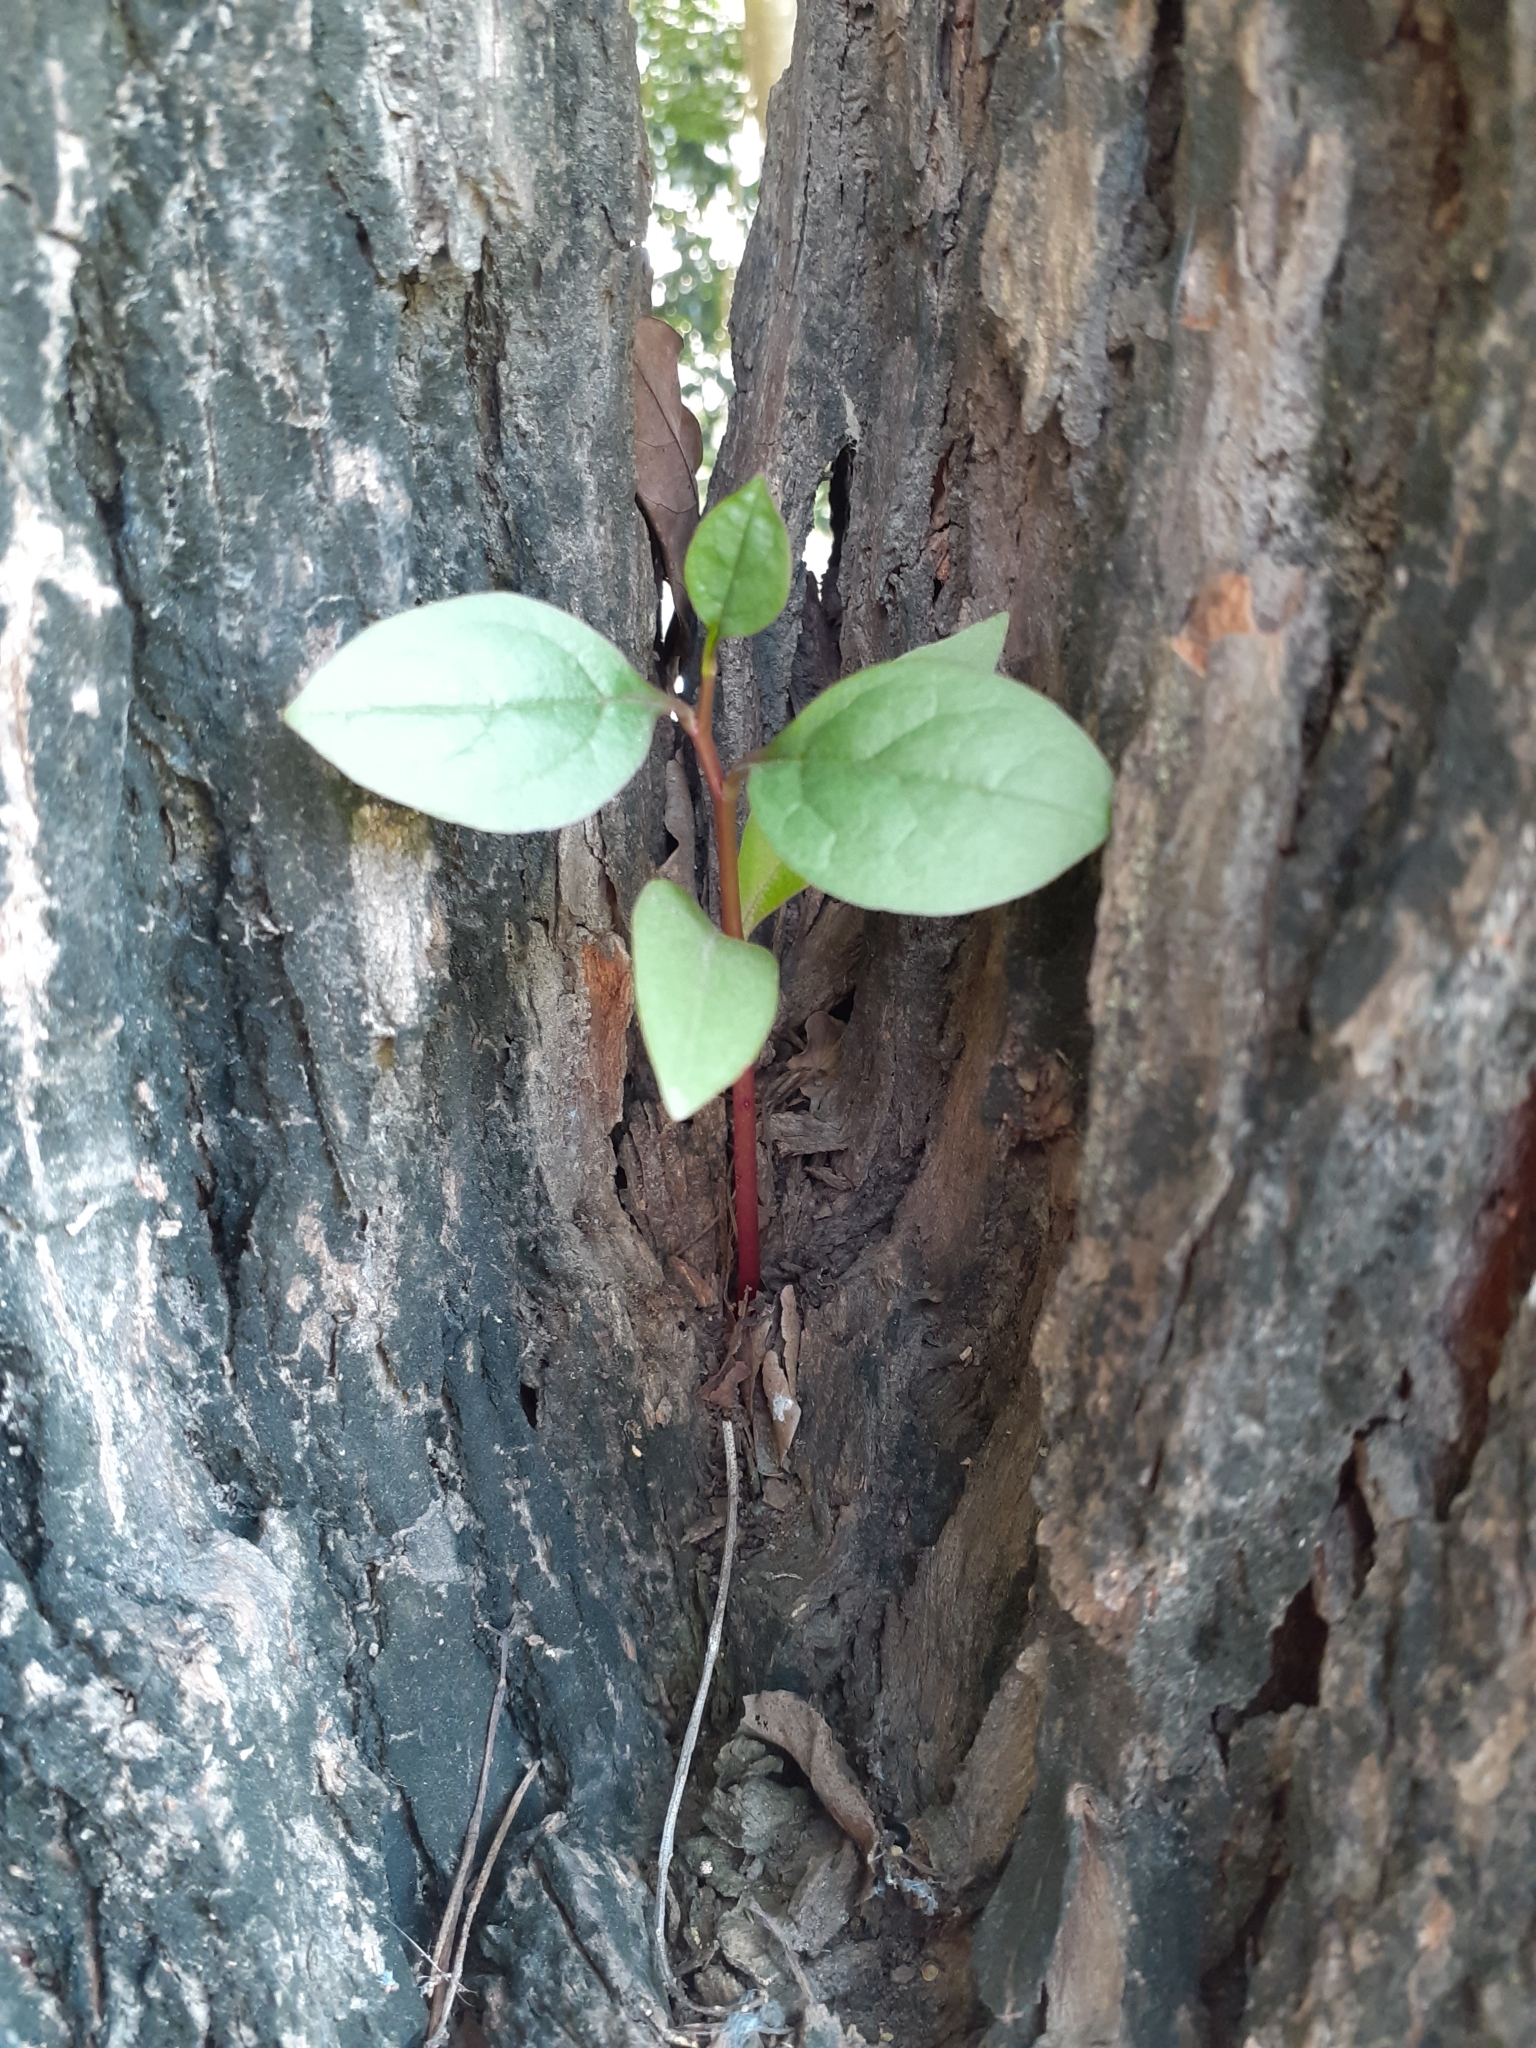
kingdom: Plantae
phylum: Tracheophyta
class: Magnoliopsida
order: Caryophyllales
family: Basellaceae
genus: Anredera
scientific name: Anredera cordifolia
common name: Heartleaf madeiravine
